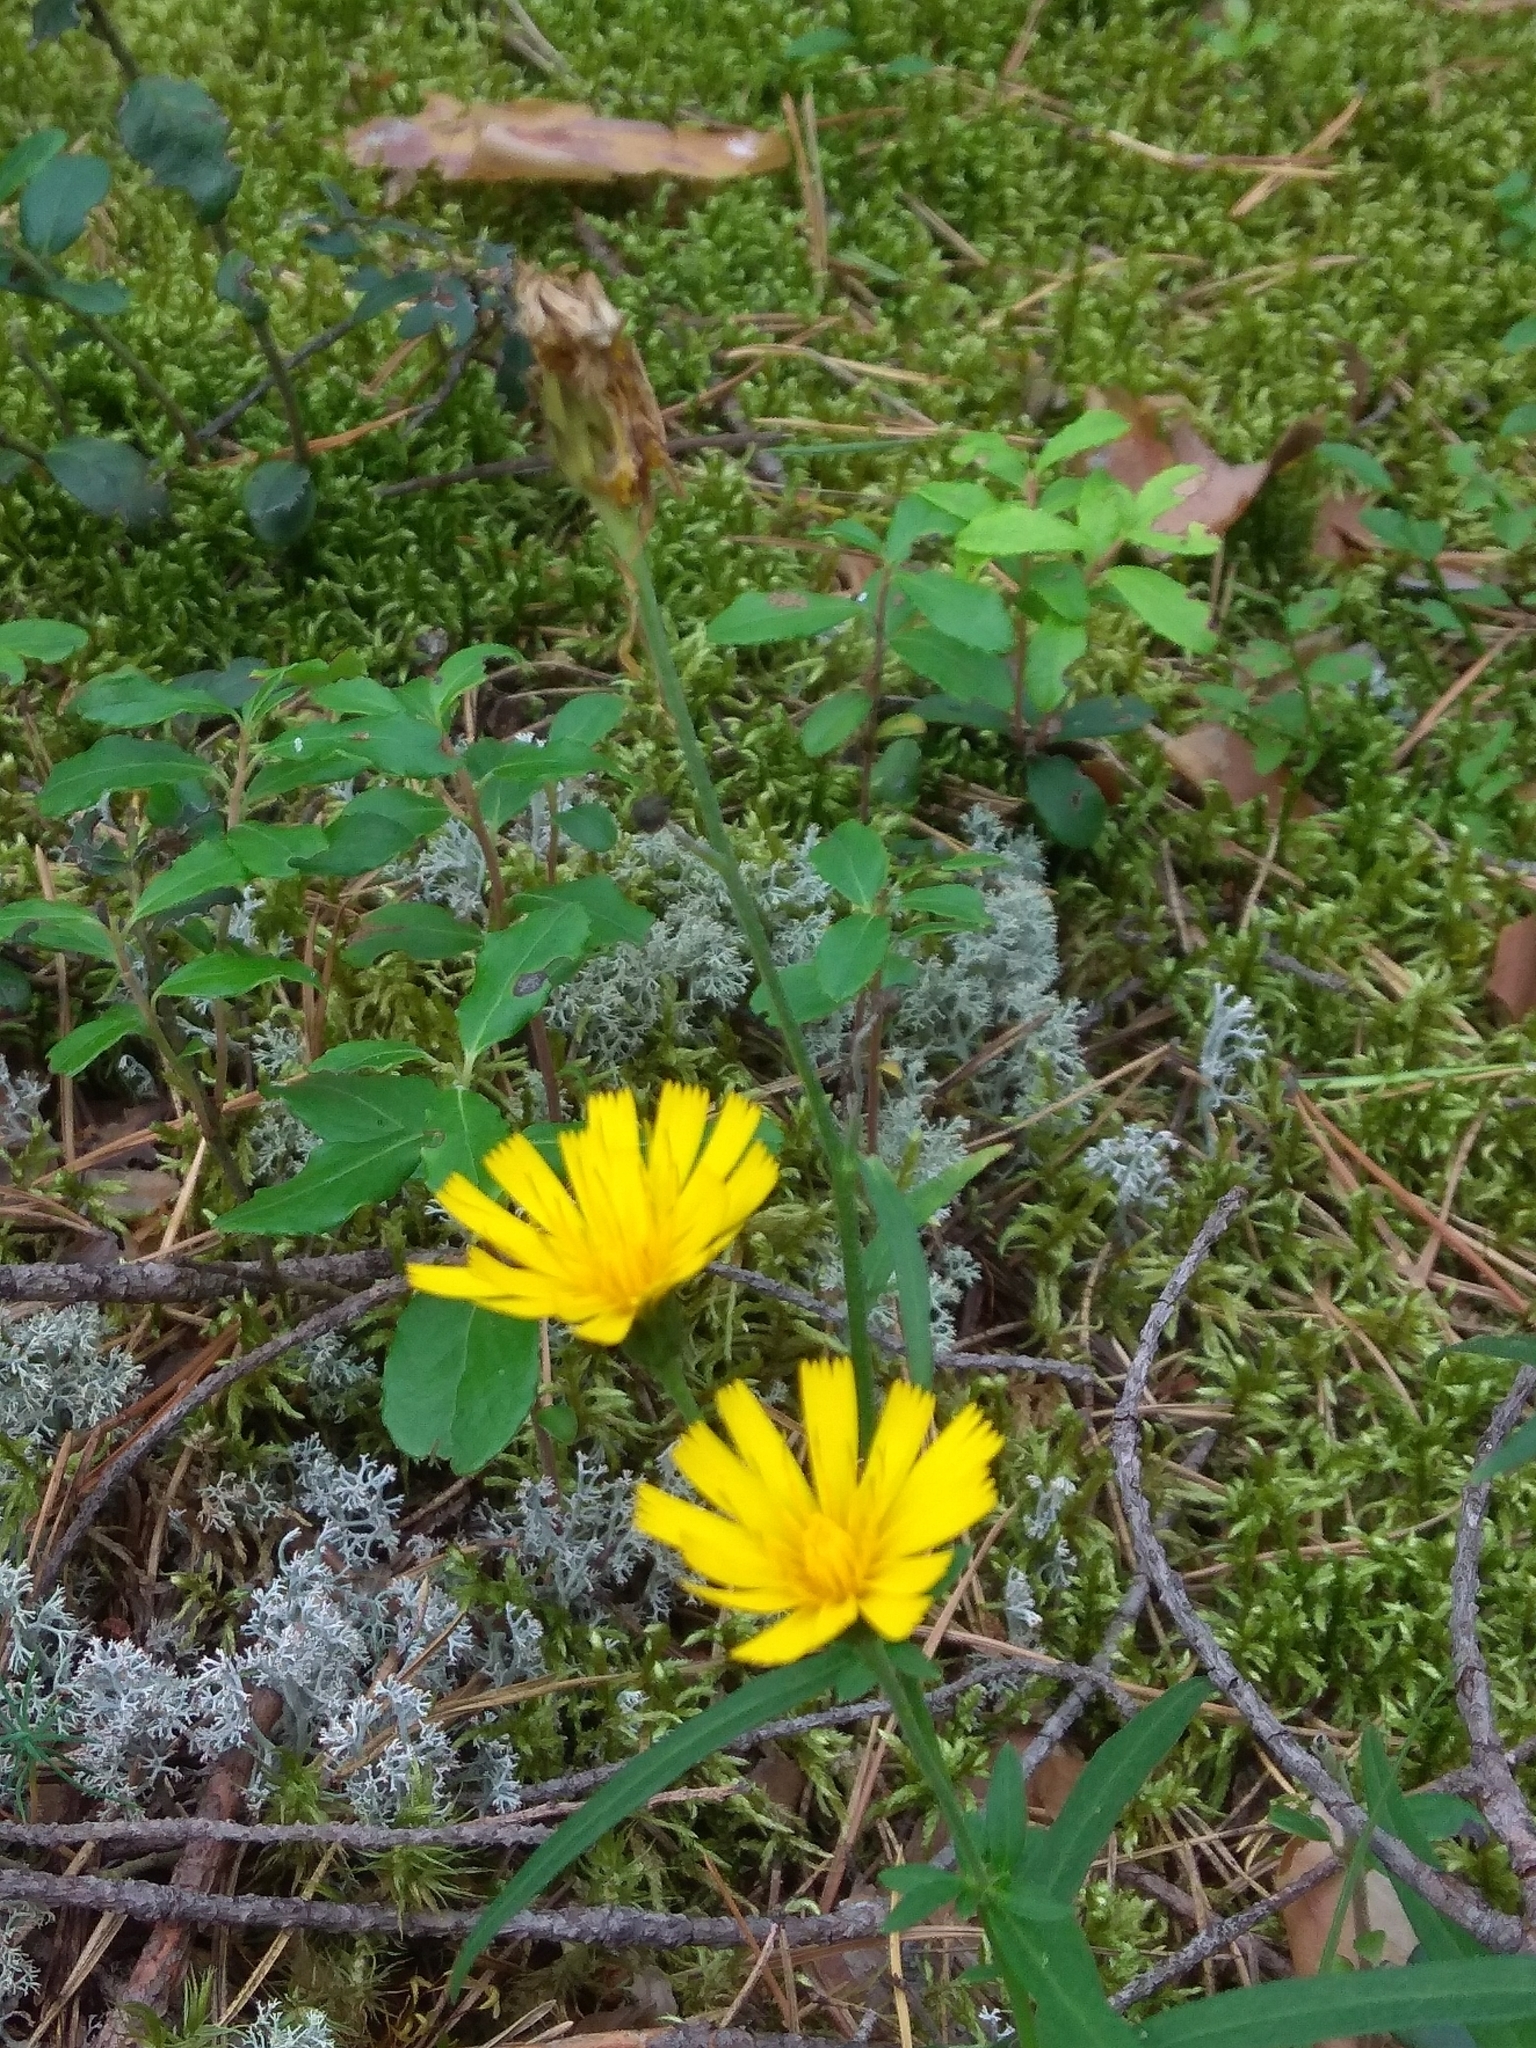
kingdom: Plantae
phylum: Tracheophyta
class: Magnoliopsida
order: Asterales
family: Asteraceae
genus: Hieracium
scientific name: Hieracium umbellatum
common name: Northern hawkweed
